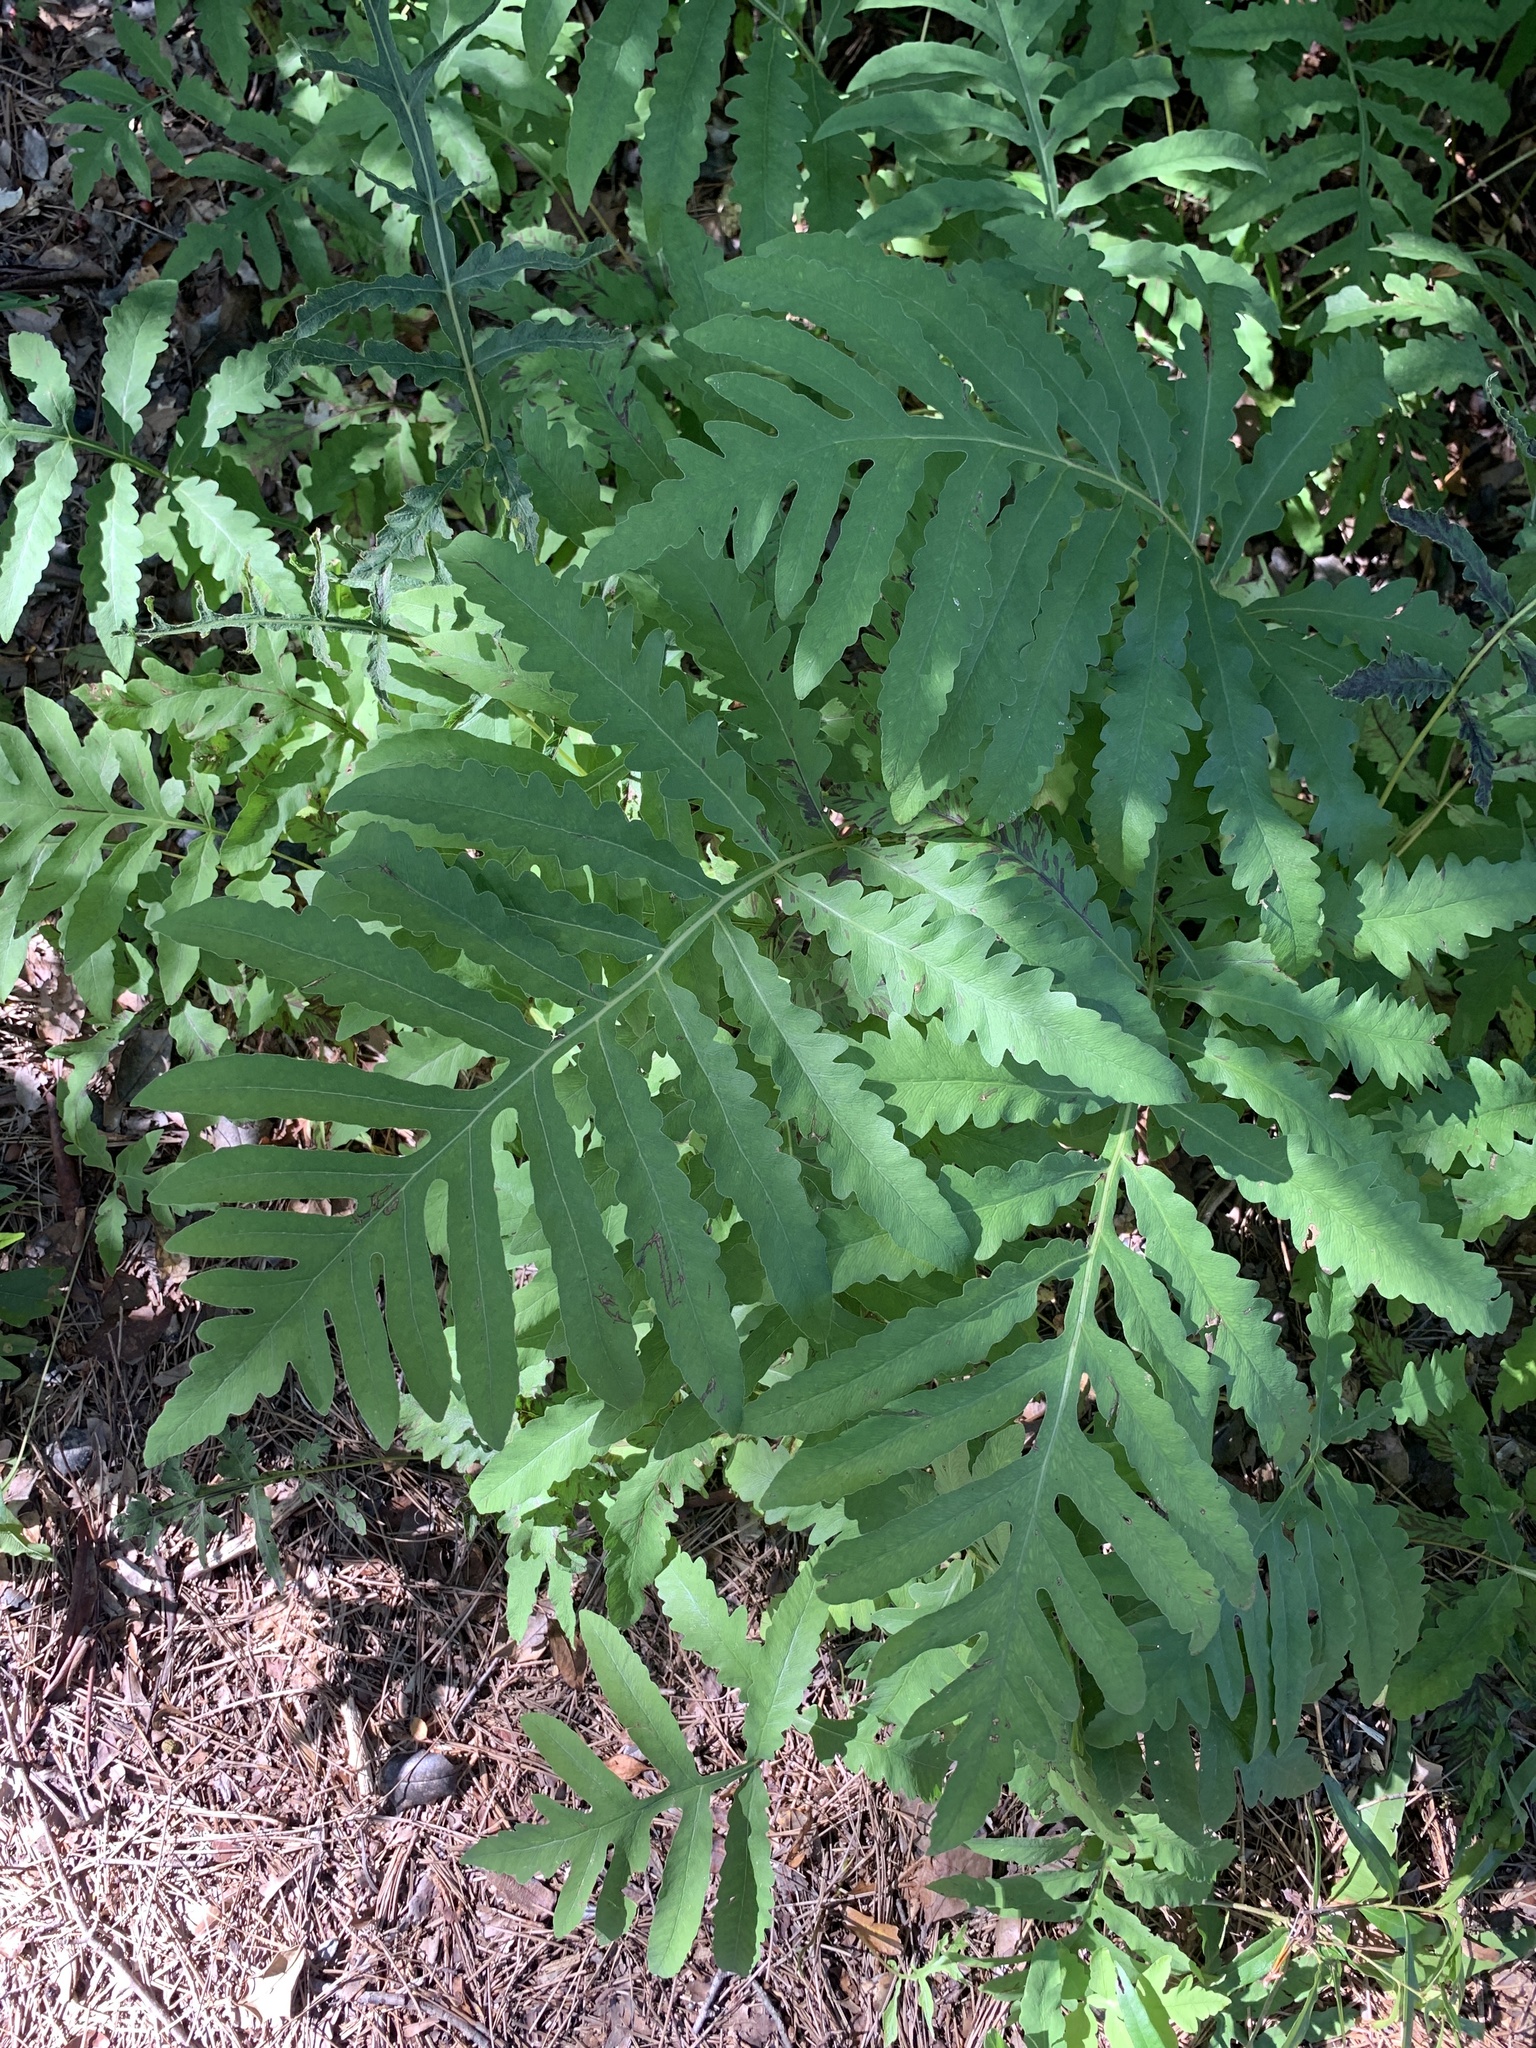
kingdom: Plantae
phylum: Tracheophyta
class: Polypodiopsida
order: Polypodiales
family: Onocleaceae
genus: Onoclea
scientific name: Onoclea sensibilis
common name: Sensitive fern
